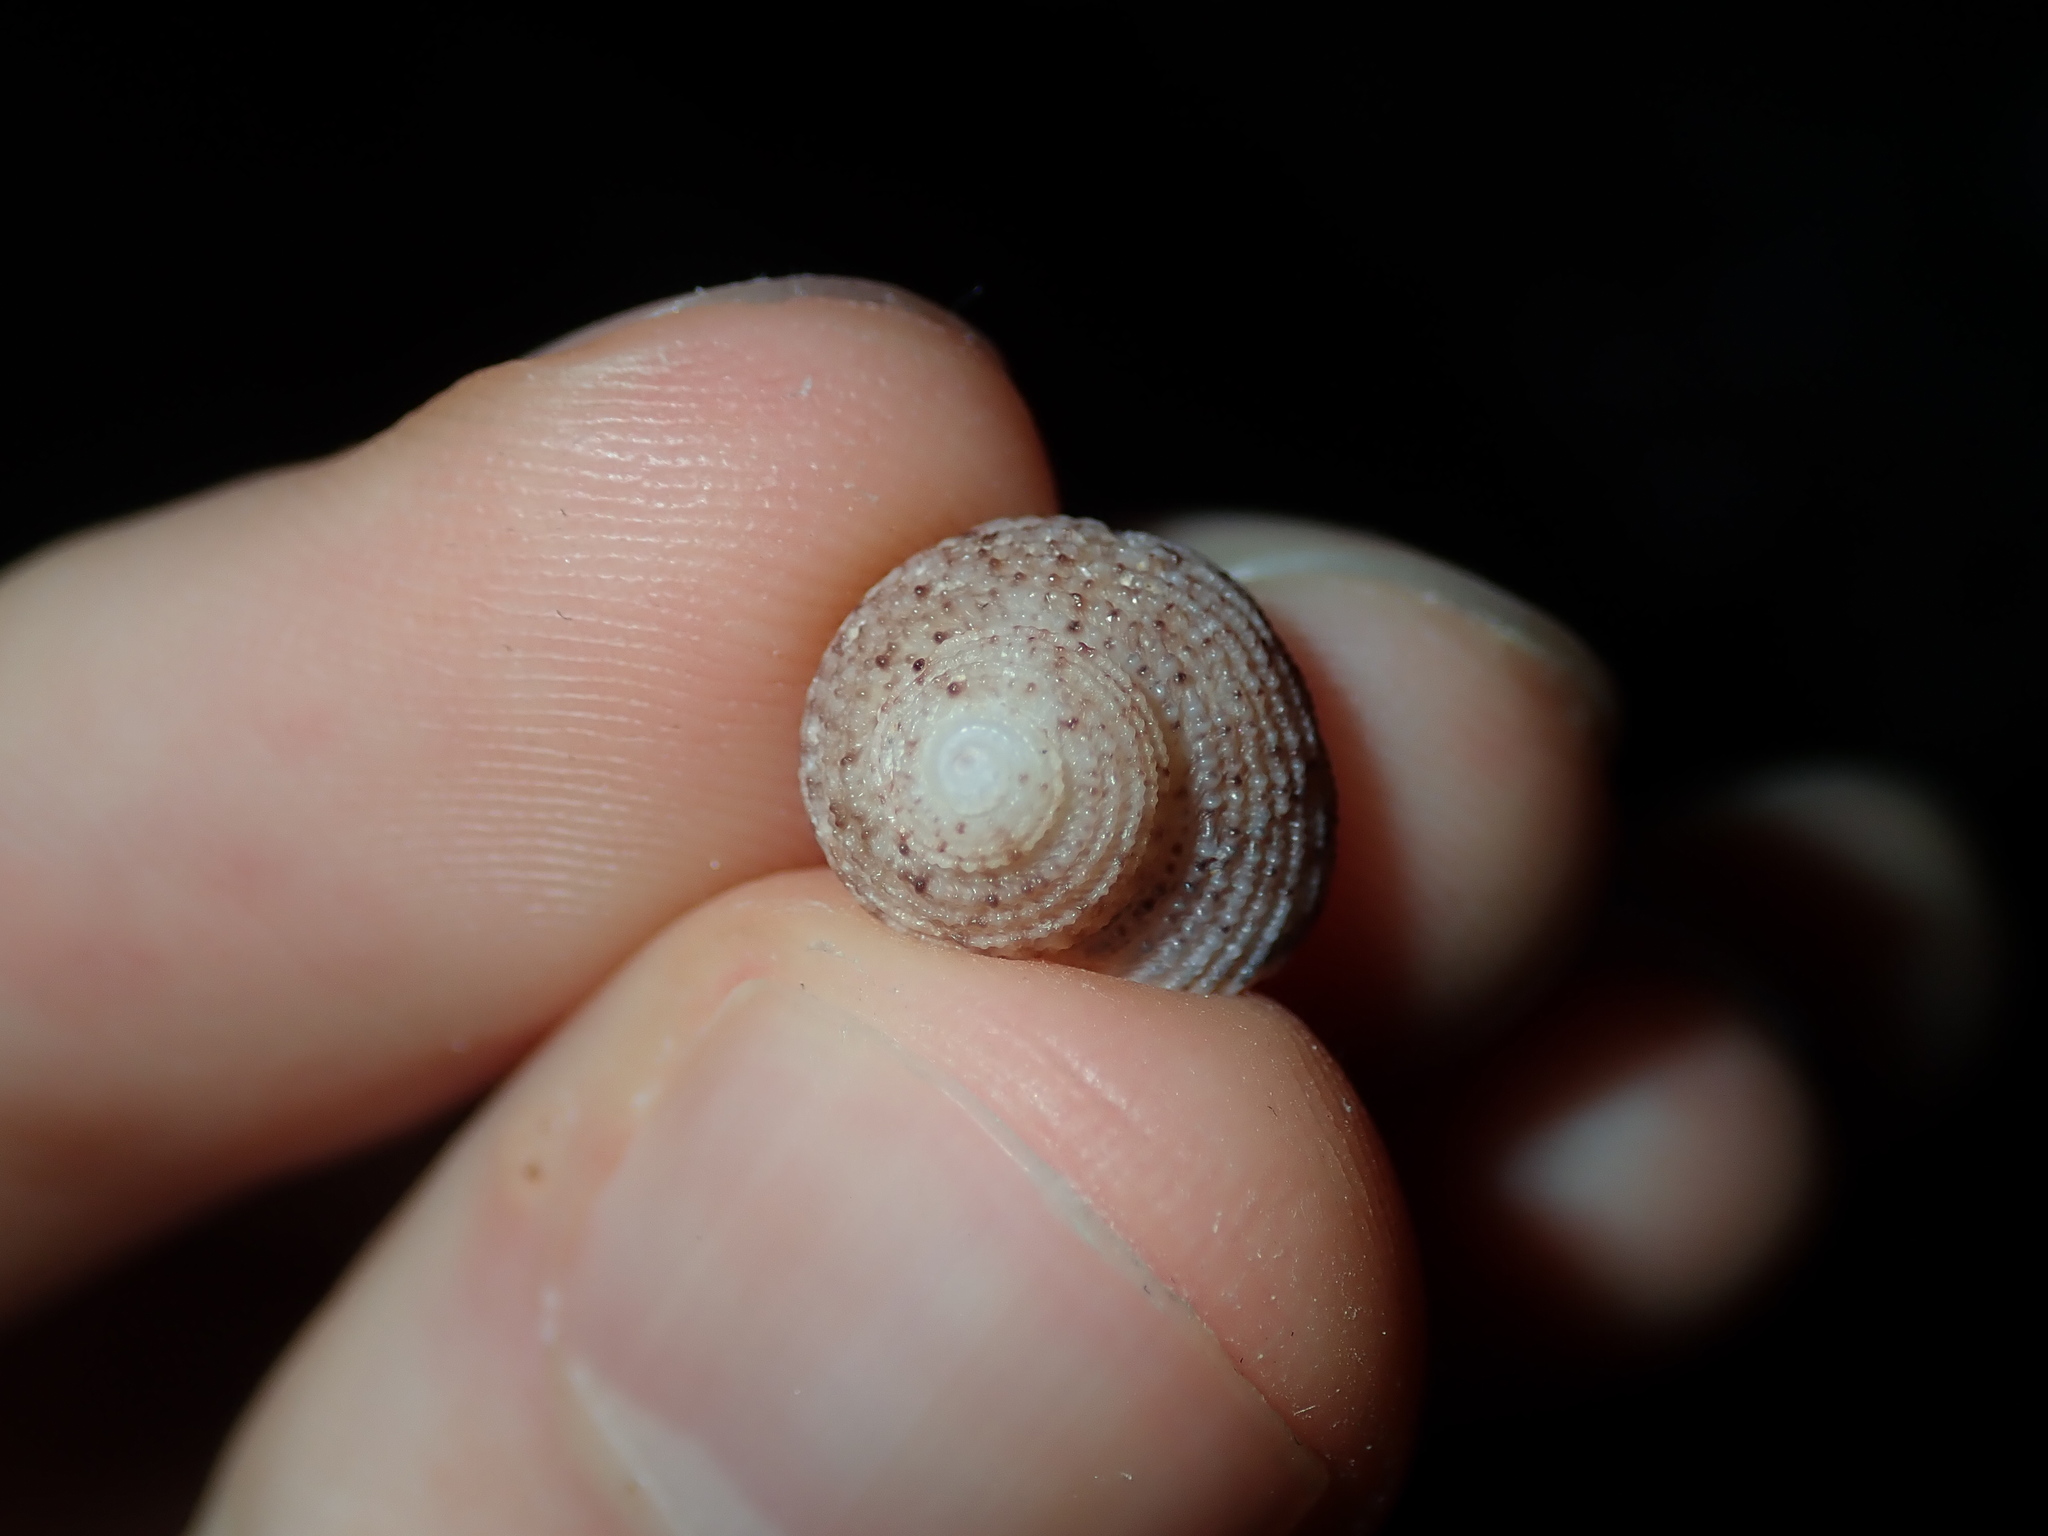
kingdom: Animalia
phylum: Mollusca
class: Gastropoda
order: Seguenziida
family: Chilodontaidae
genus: Herpetopoma
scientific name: Herpetopoma aspersum
